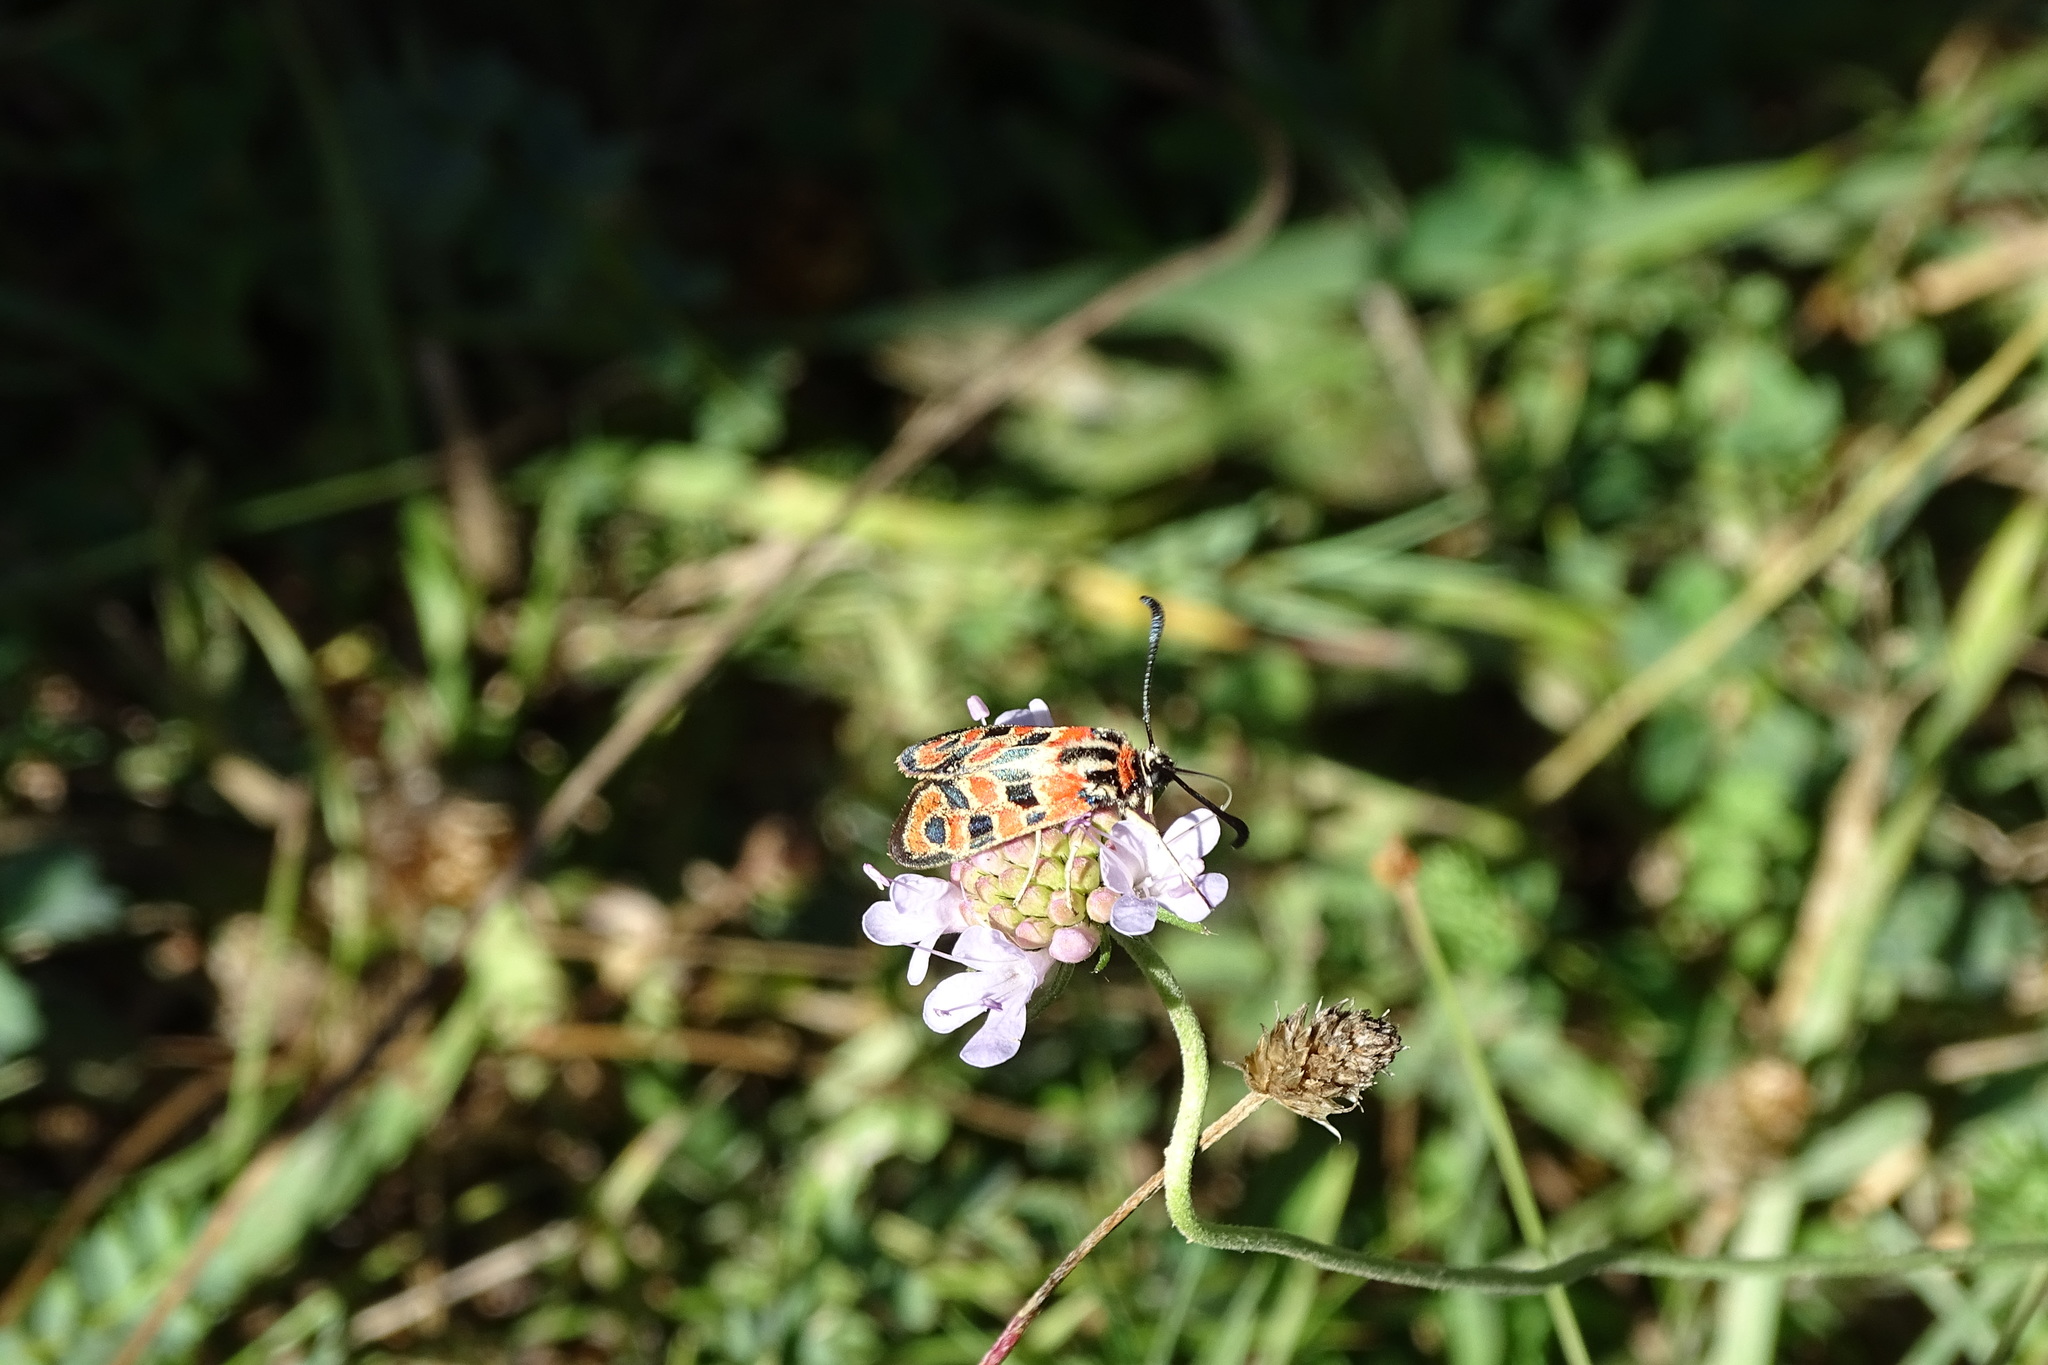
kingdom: Animalia
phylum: Arthropoda
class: Insecta
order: Lepidoptera
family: Zygaenidae
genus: Zygaena
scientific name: Zygaena fausta
